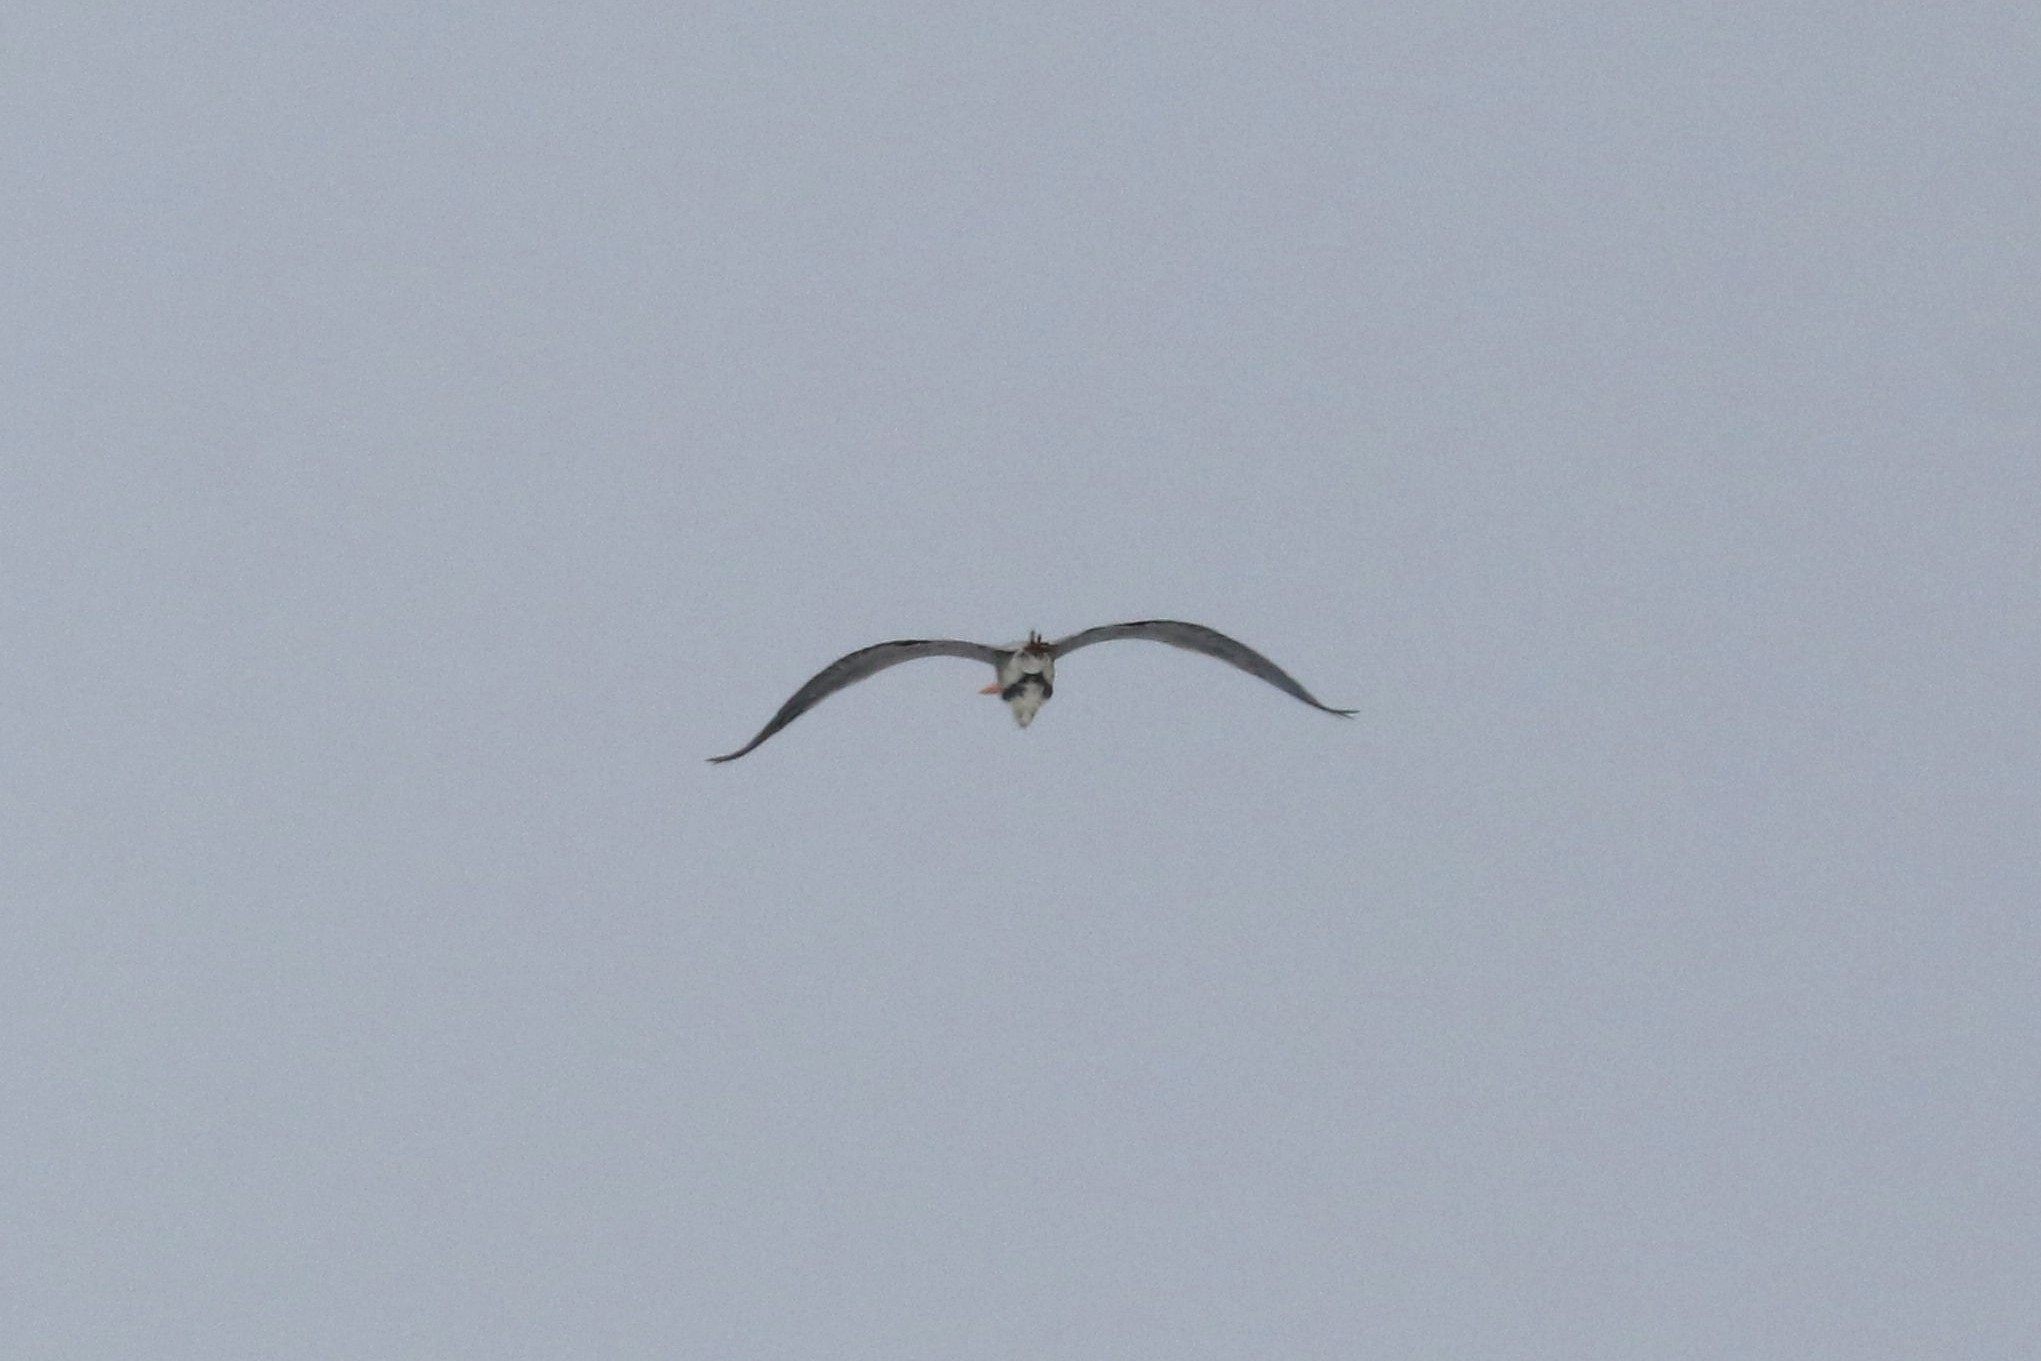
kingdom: Animalia
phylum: Chordata
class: Aves
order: Pelecaniformes
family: Ardeidae
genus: Ardea
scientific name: Ardea cinerea
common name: Grey heron
